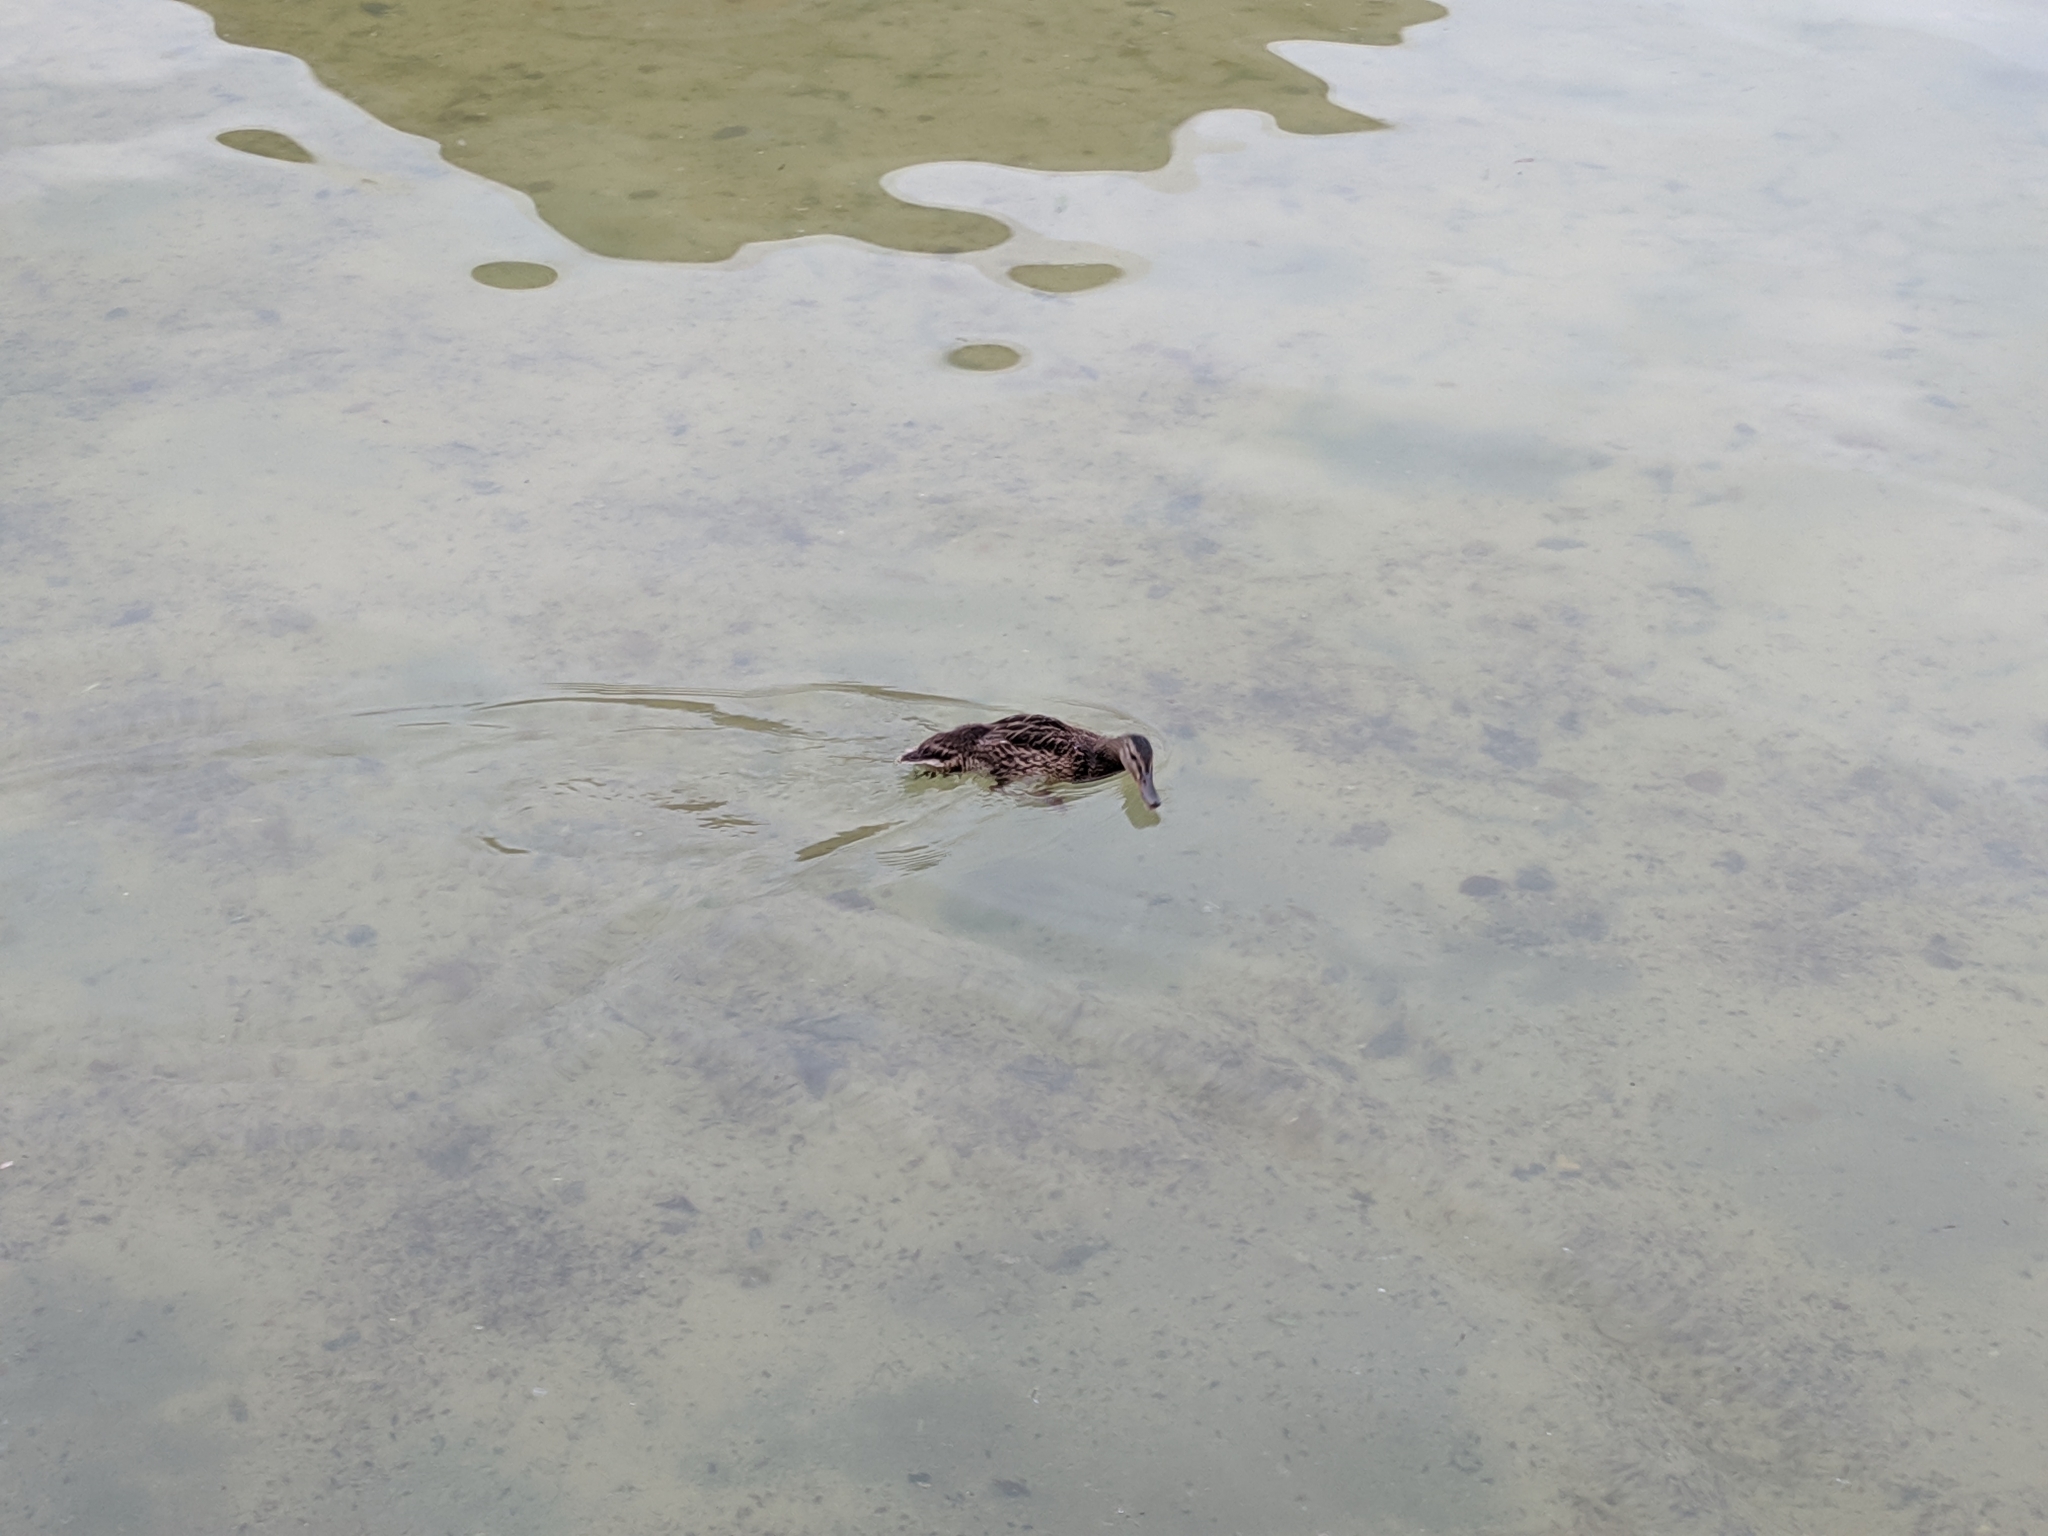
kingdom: Animalia
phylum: Chordata
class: Aves
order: Anseriformes
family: Anatidae
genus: Anas
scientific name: Anas platyrhynchos
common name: Mallard
